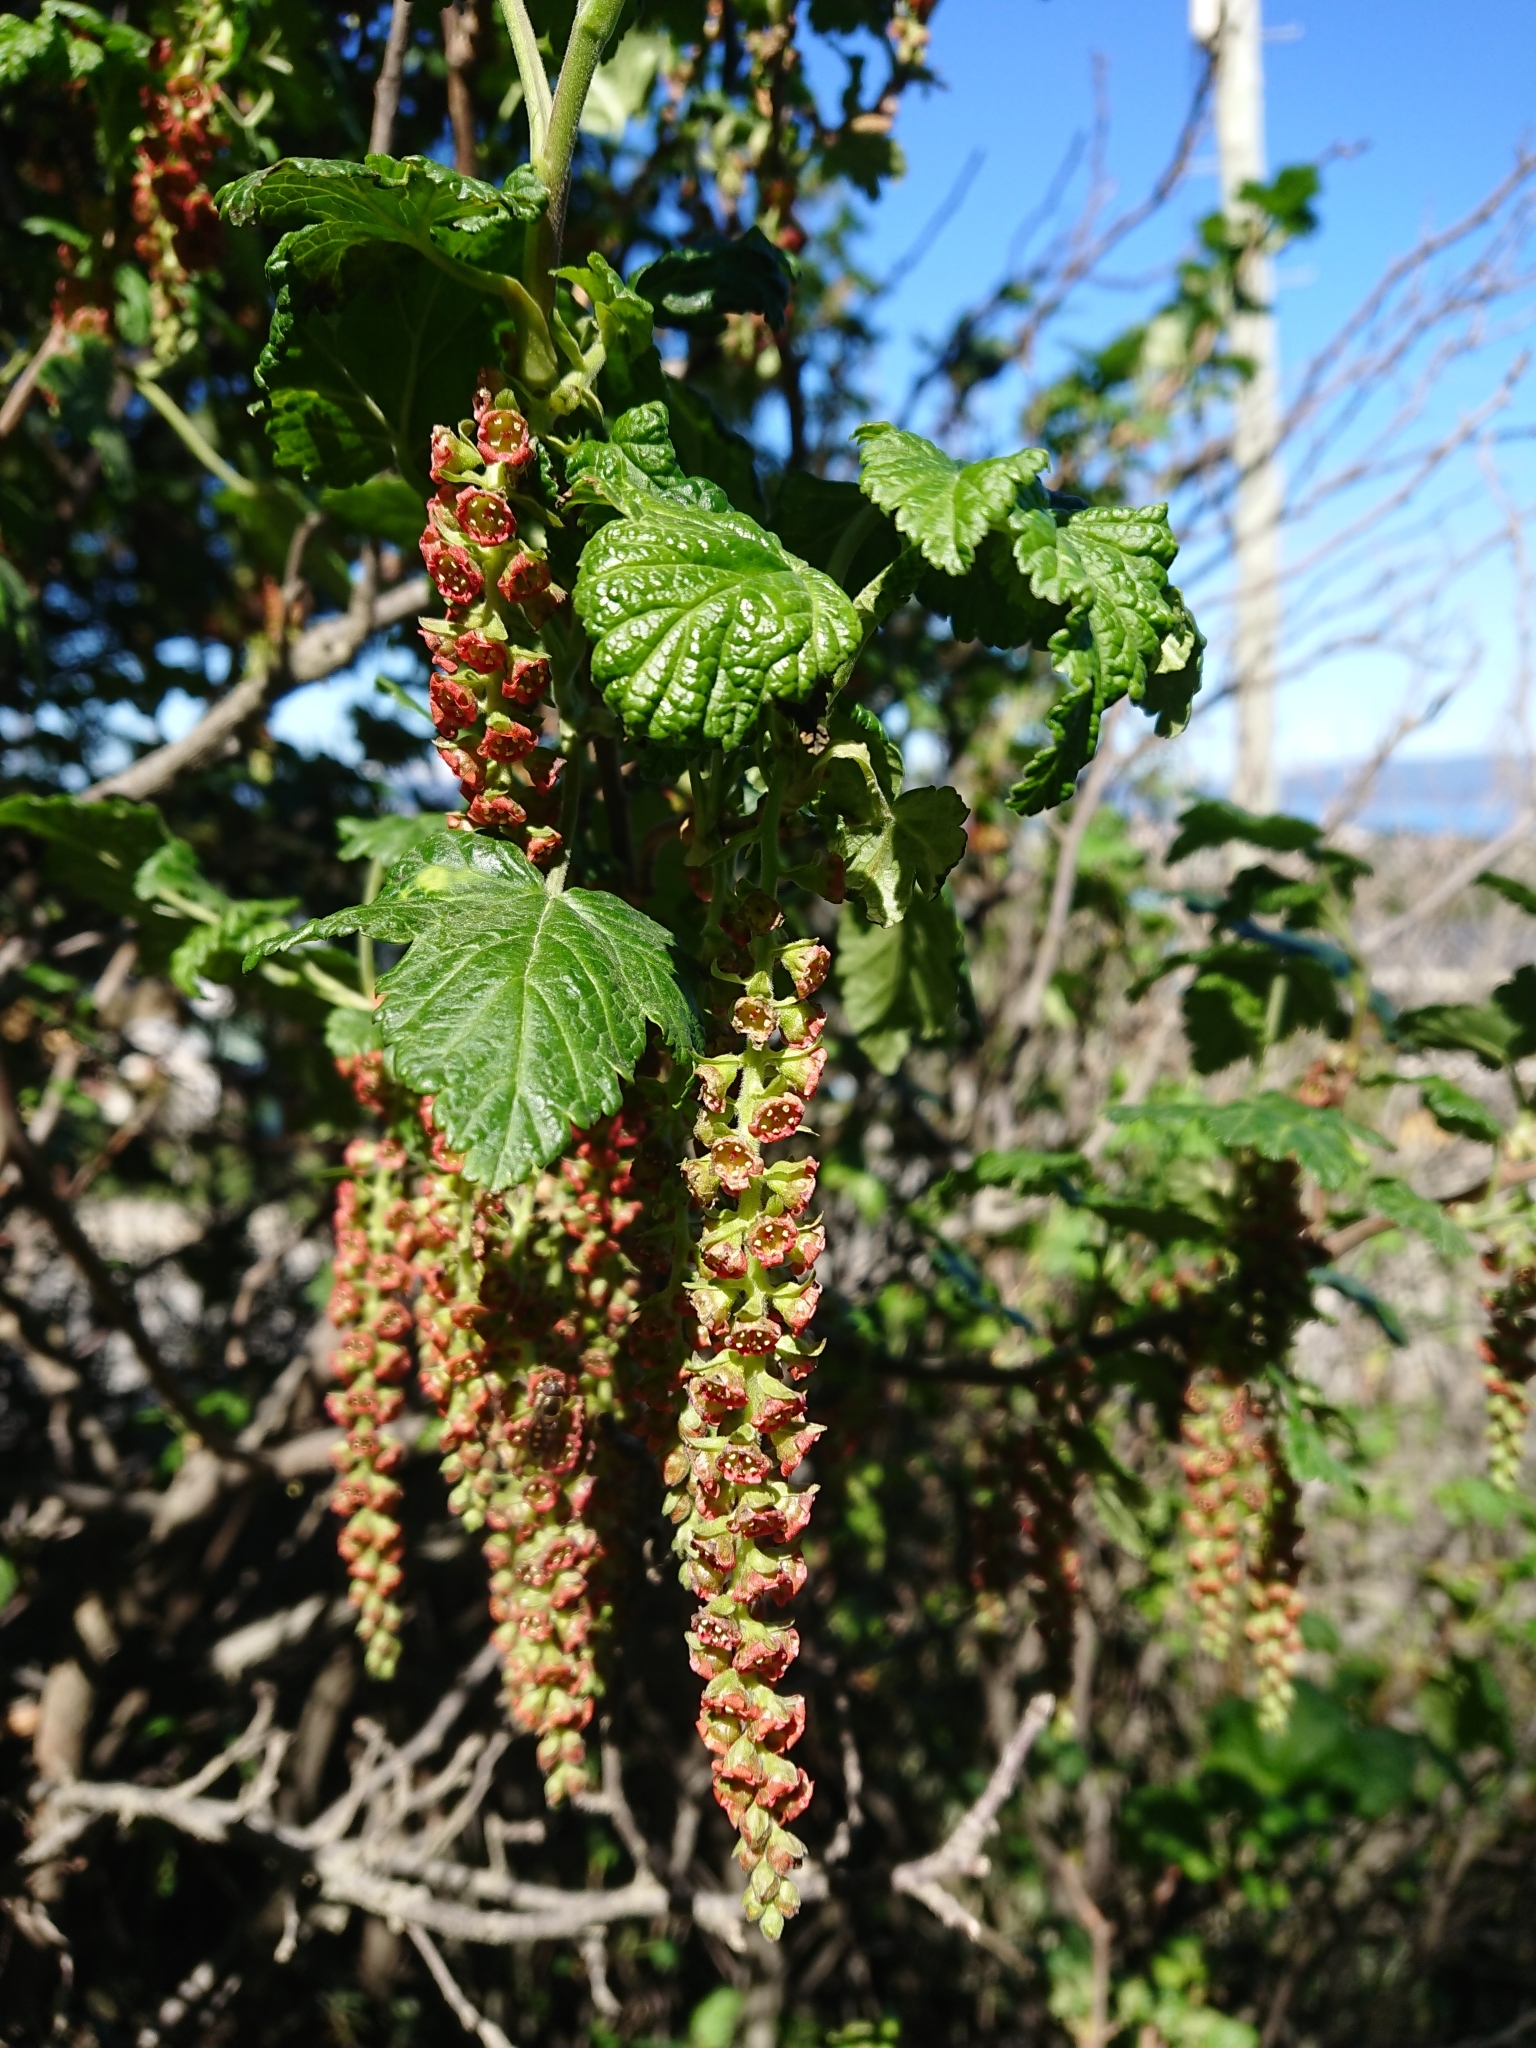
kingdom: Plantae
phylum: Tracheophyta
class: Magnoliopsida
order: Saxifragales
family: Grossulariaceae
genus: Ribes
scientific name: Ribes magellanicum
